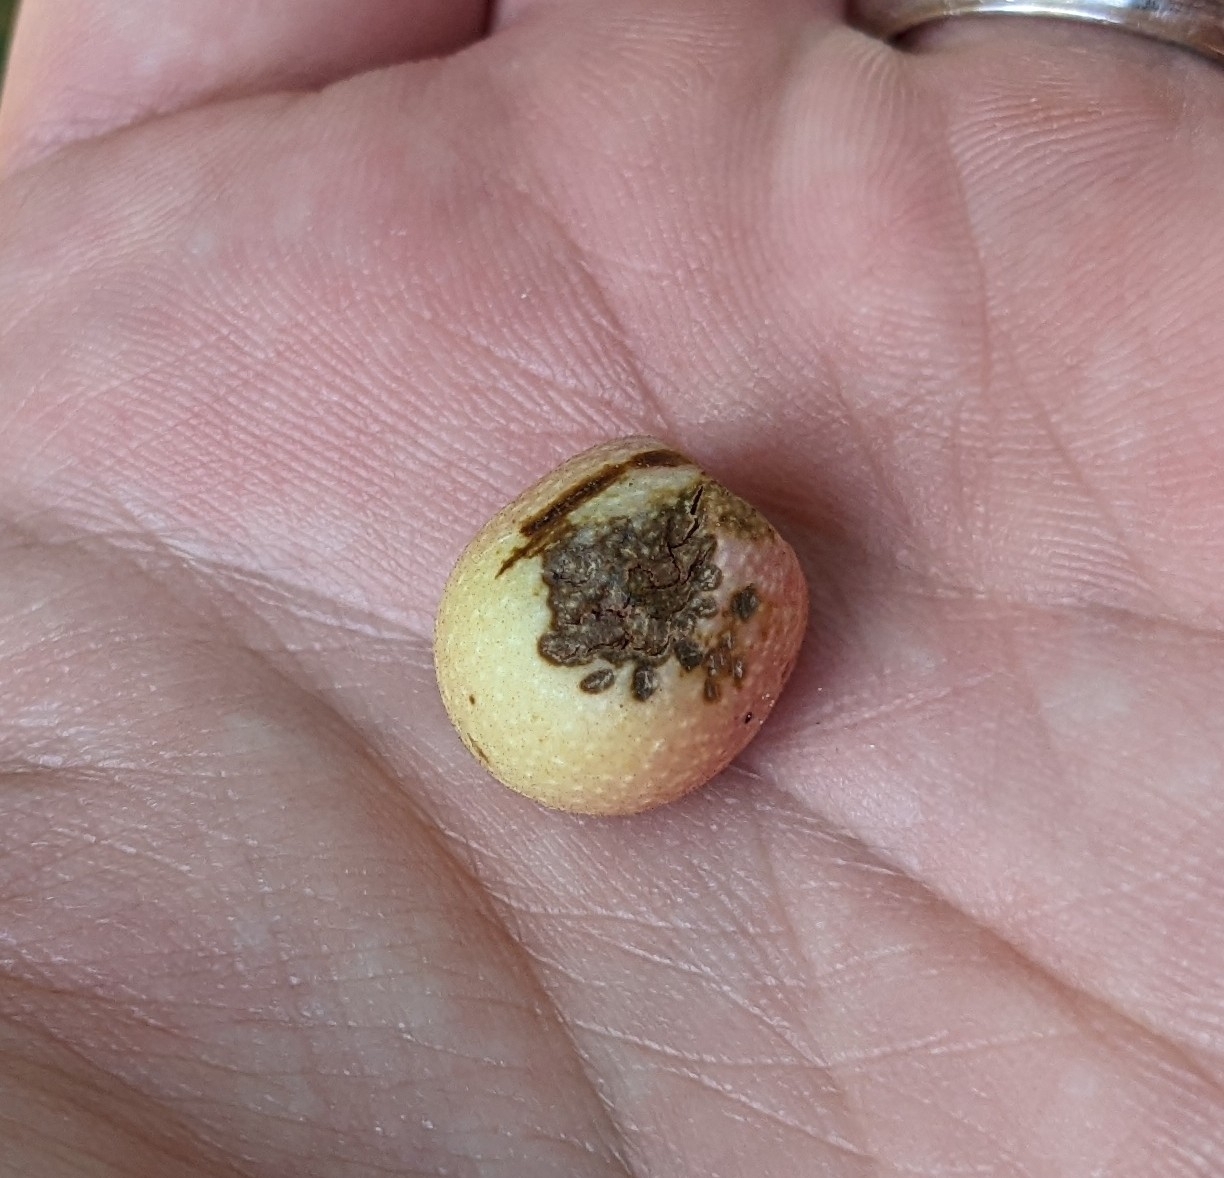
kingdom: Animalia
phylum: Arthropoda
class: Insecta
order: Hymenoptera
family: Cynipidae
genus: Amphibolips
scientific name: Amphibolips
